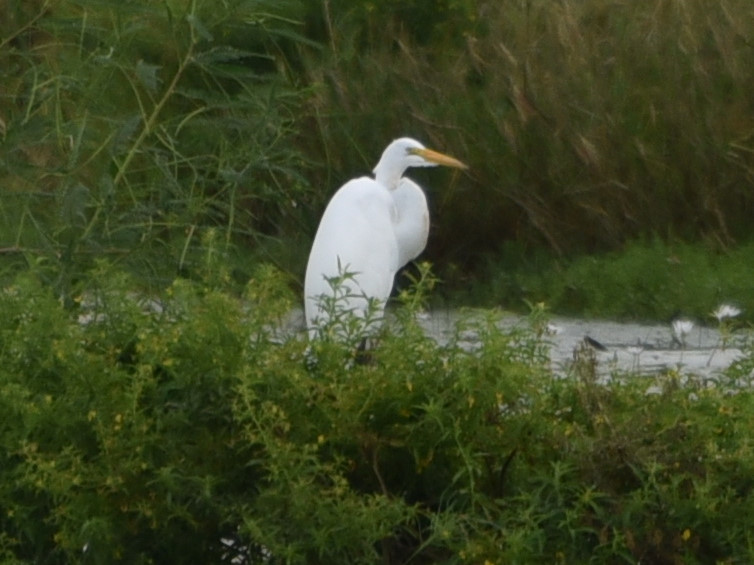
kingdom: Animalia
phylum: Chordata
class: Aves
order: Pelecaniformes
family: Ardeidae
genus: Ardea
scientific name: Ardea alba
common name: Great egret
